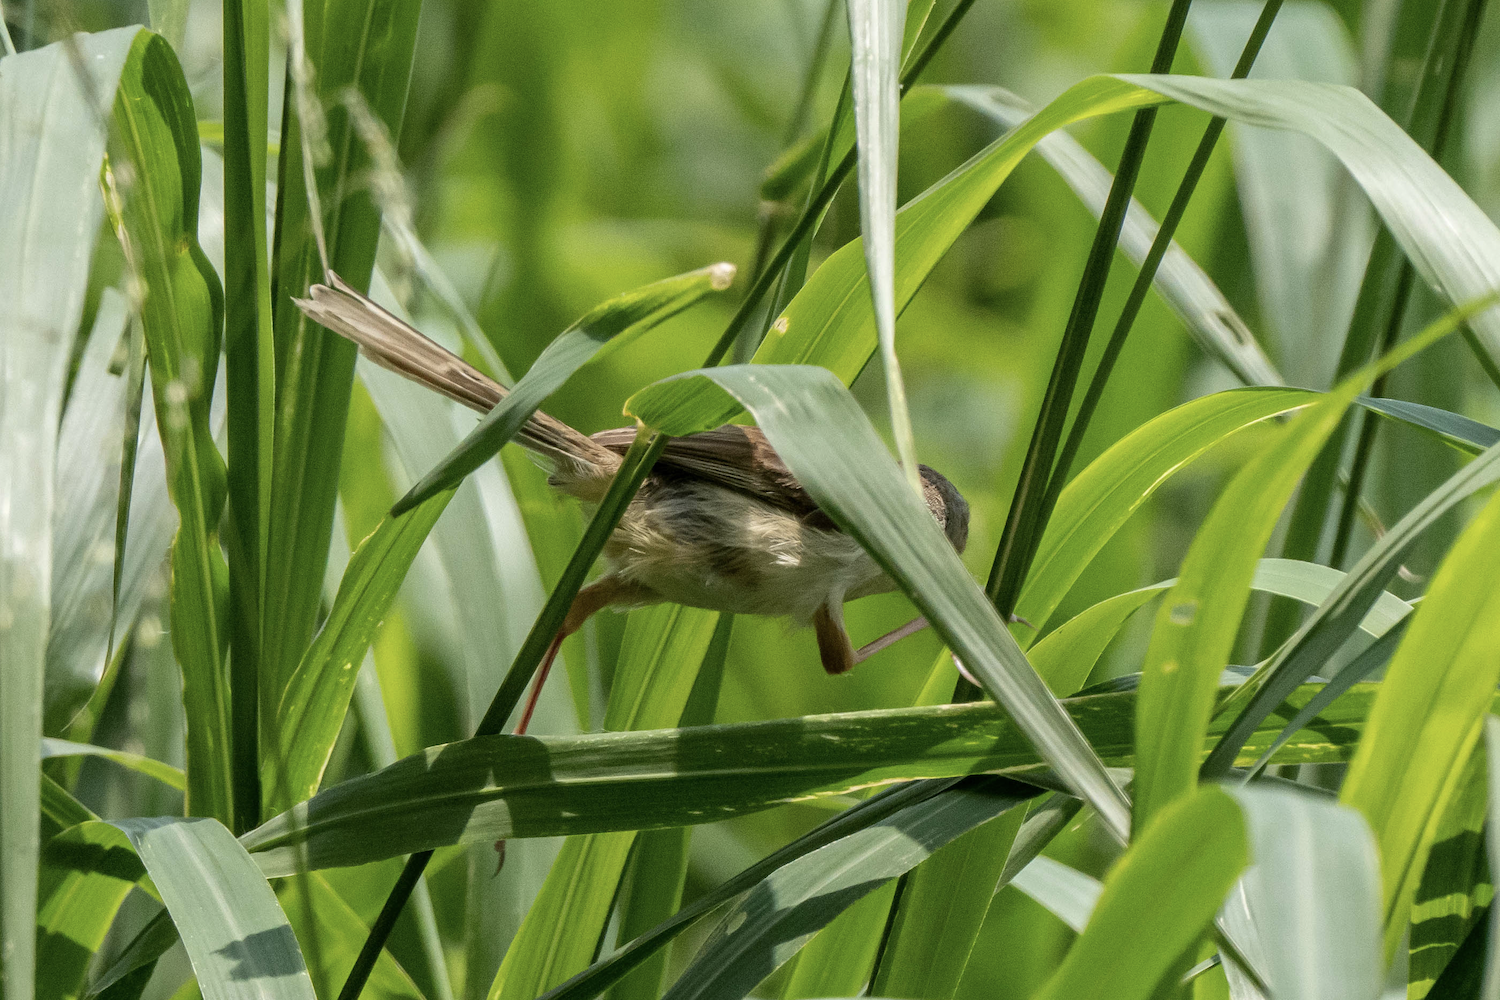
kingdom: Animalia
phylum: Chordata
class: Aves
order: Passeriformes
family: Cisticolidae
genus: Prinia
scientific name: Prinia inornata
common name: Plain prinia
